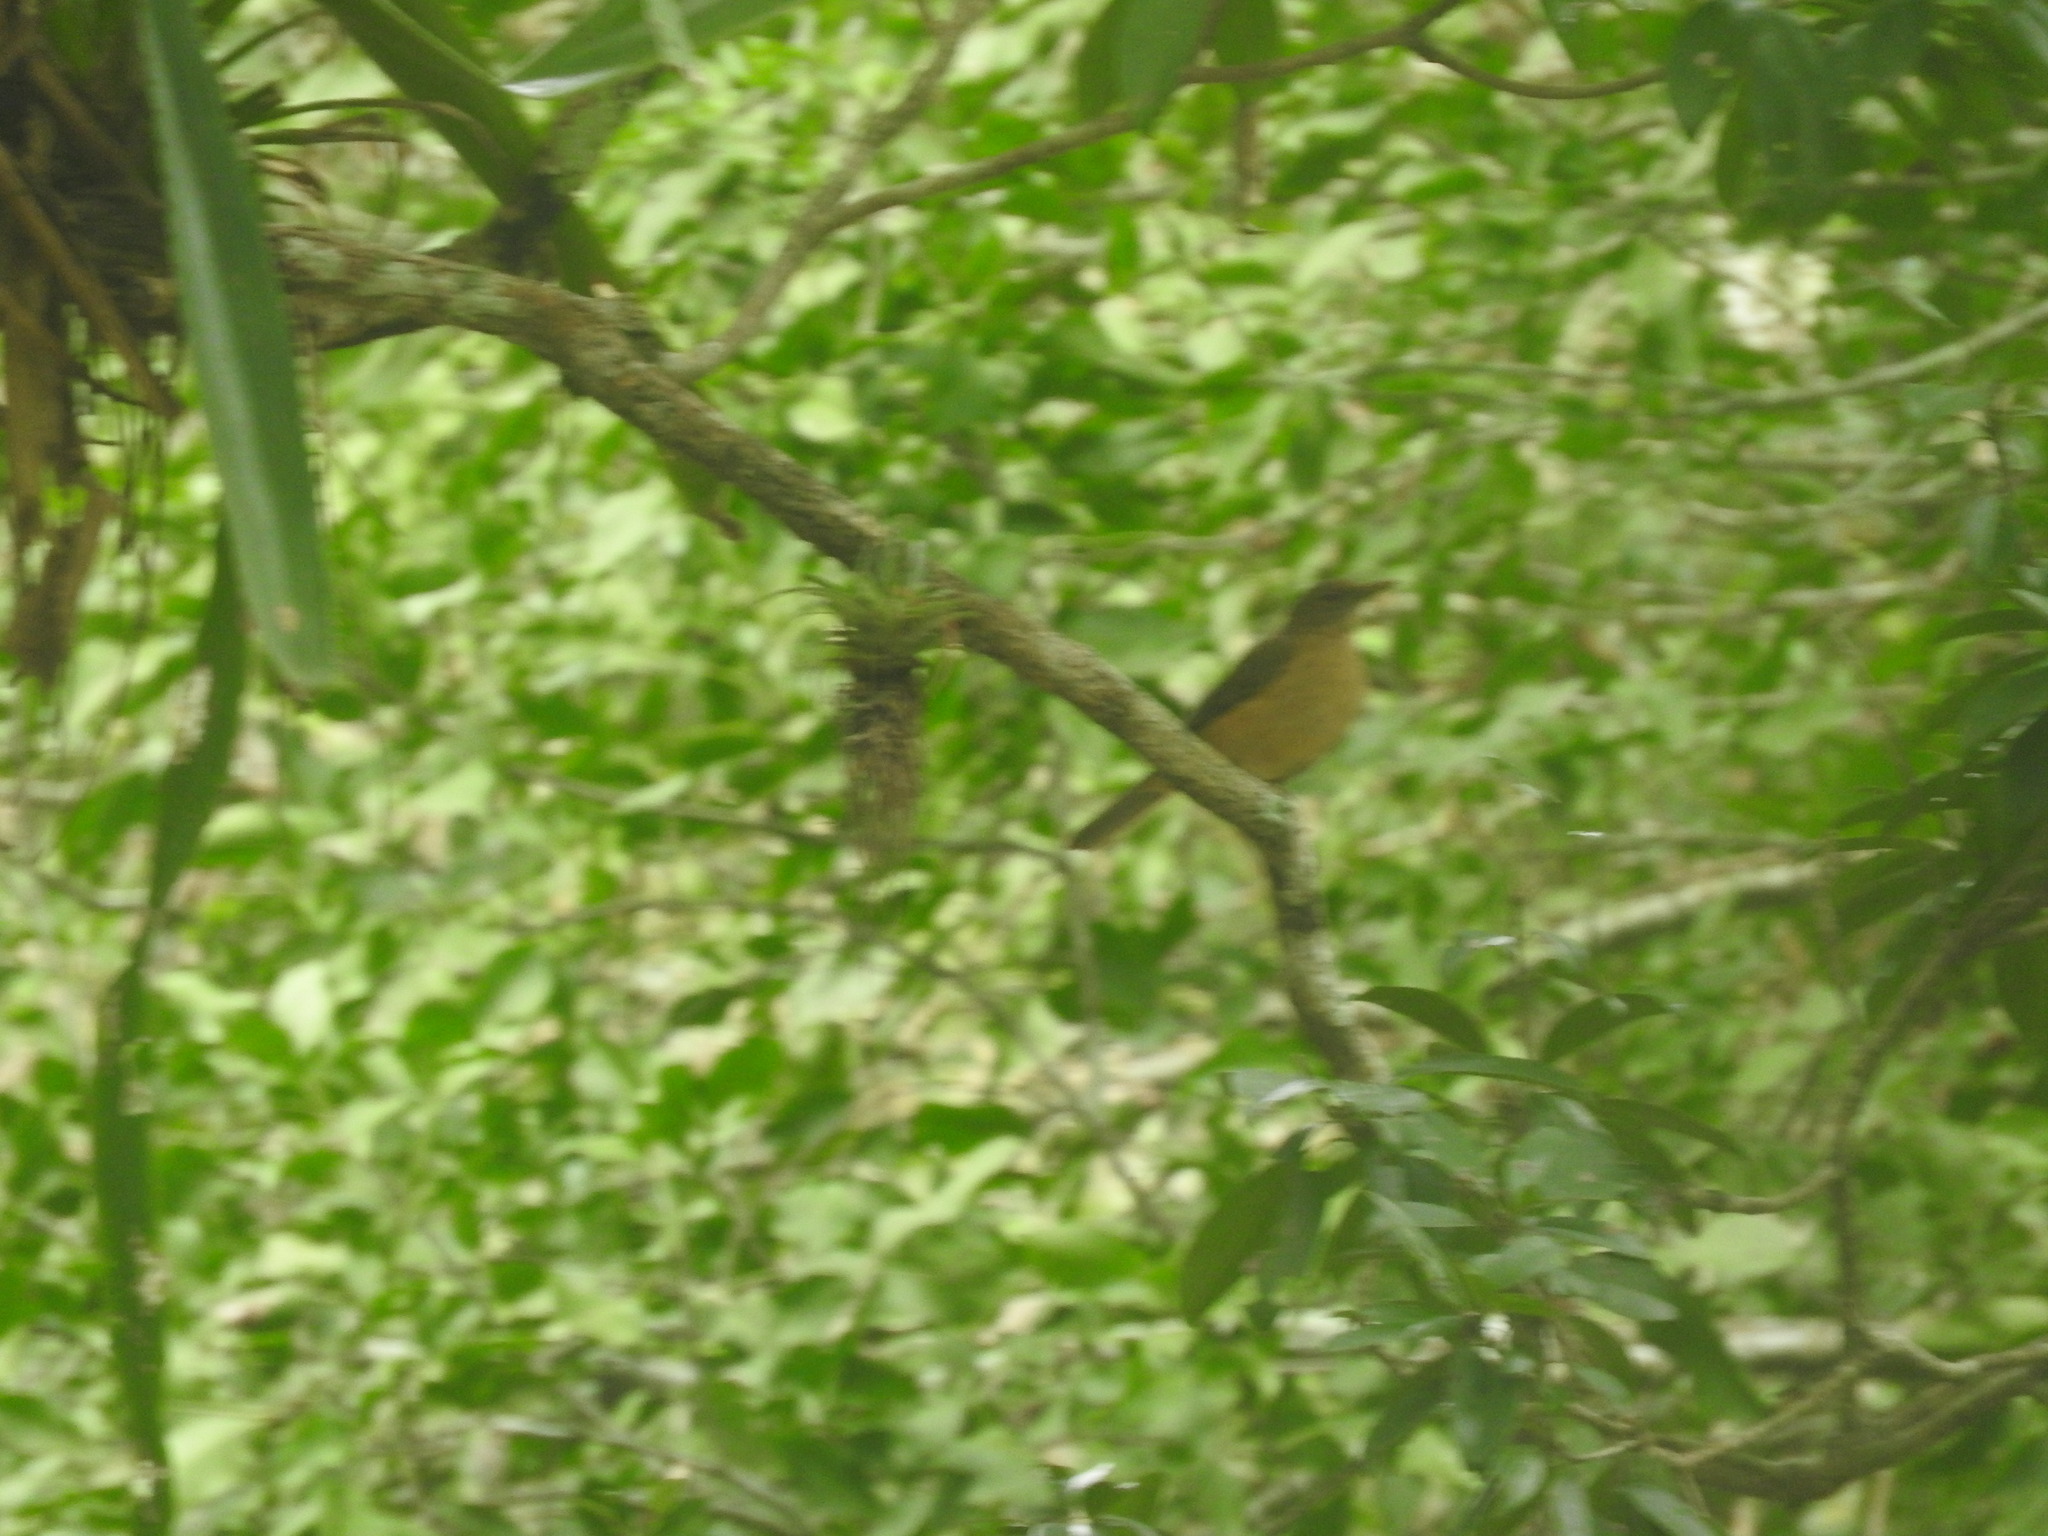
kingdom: Animalia
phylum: Chordata
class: Aves
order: Passeriformes
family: Turdidae
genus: Turdus
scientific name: Turdus grayi
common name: Clay-colored thrush
